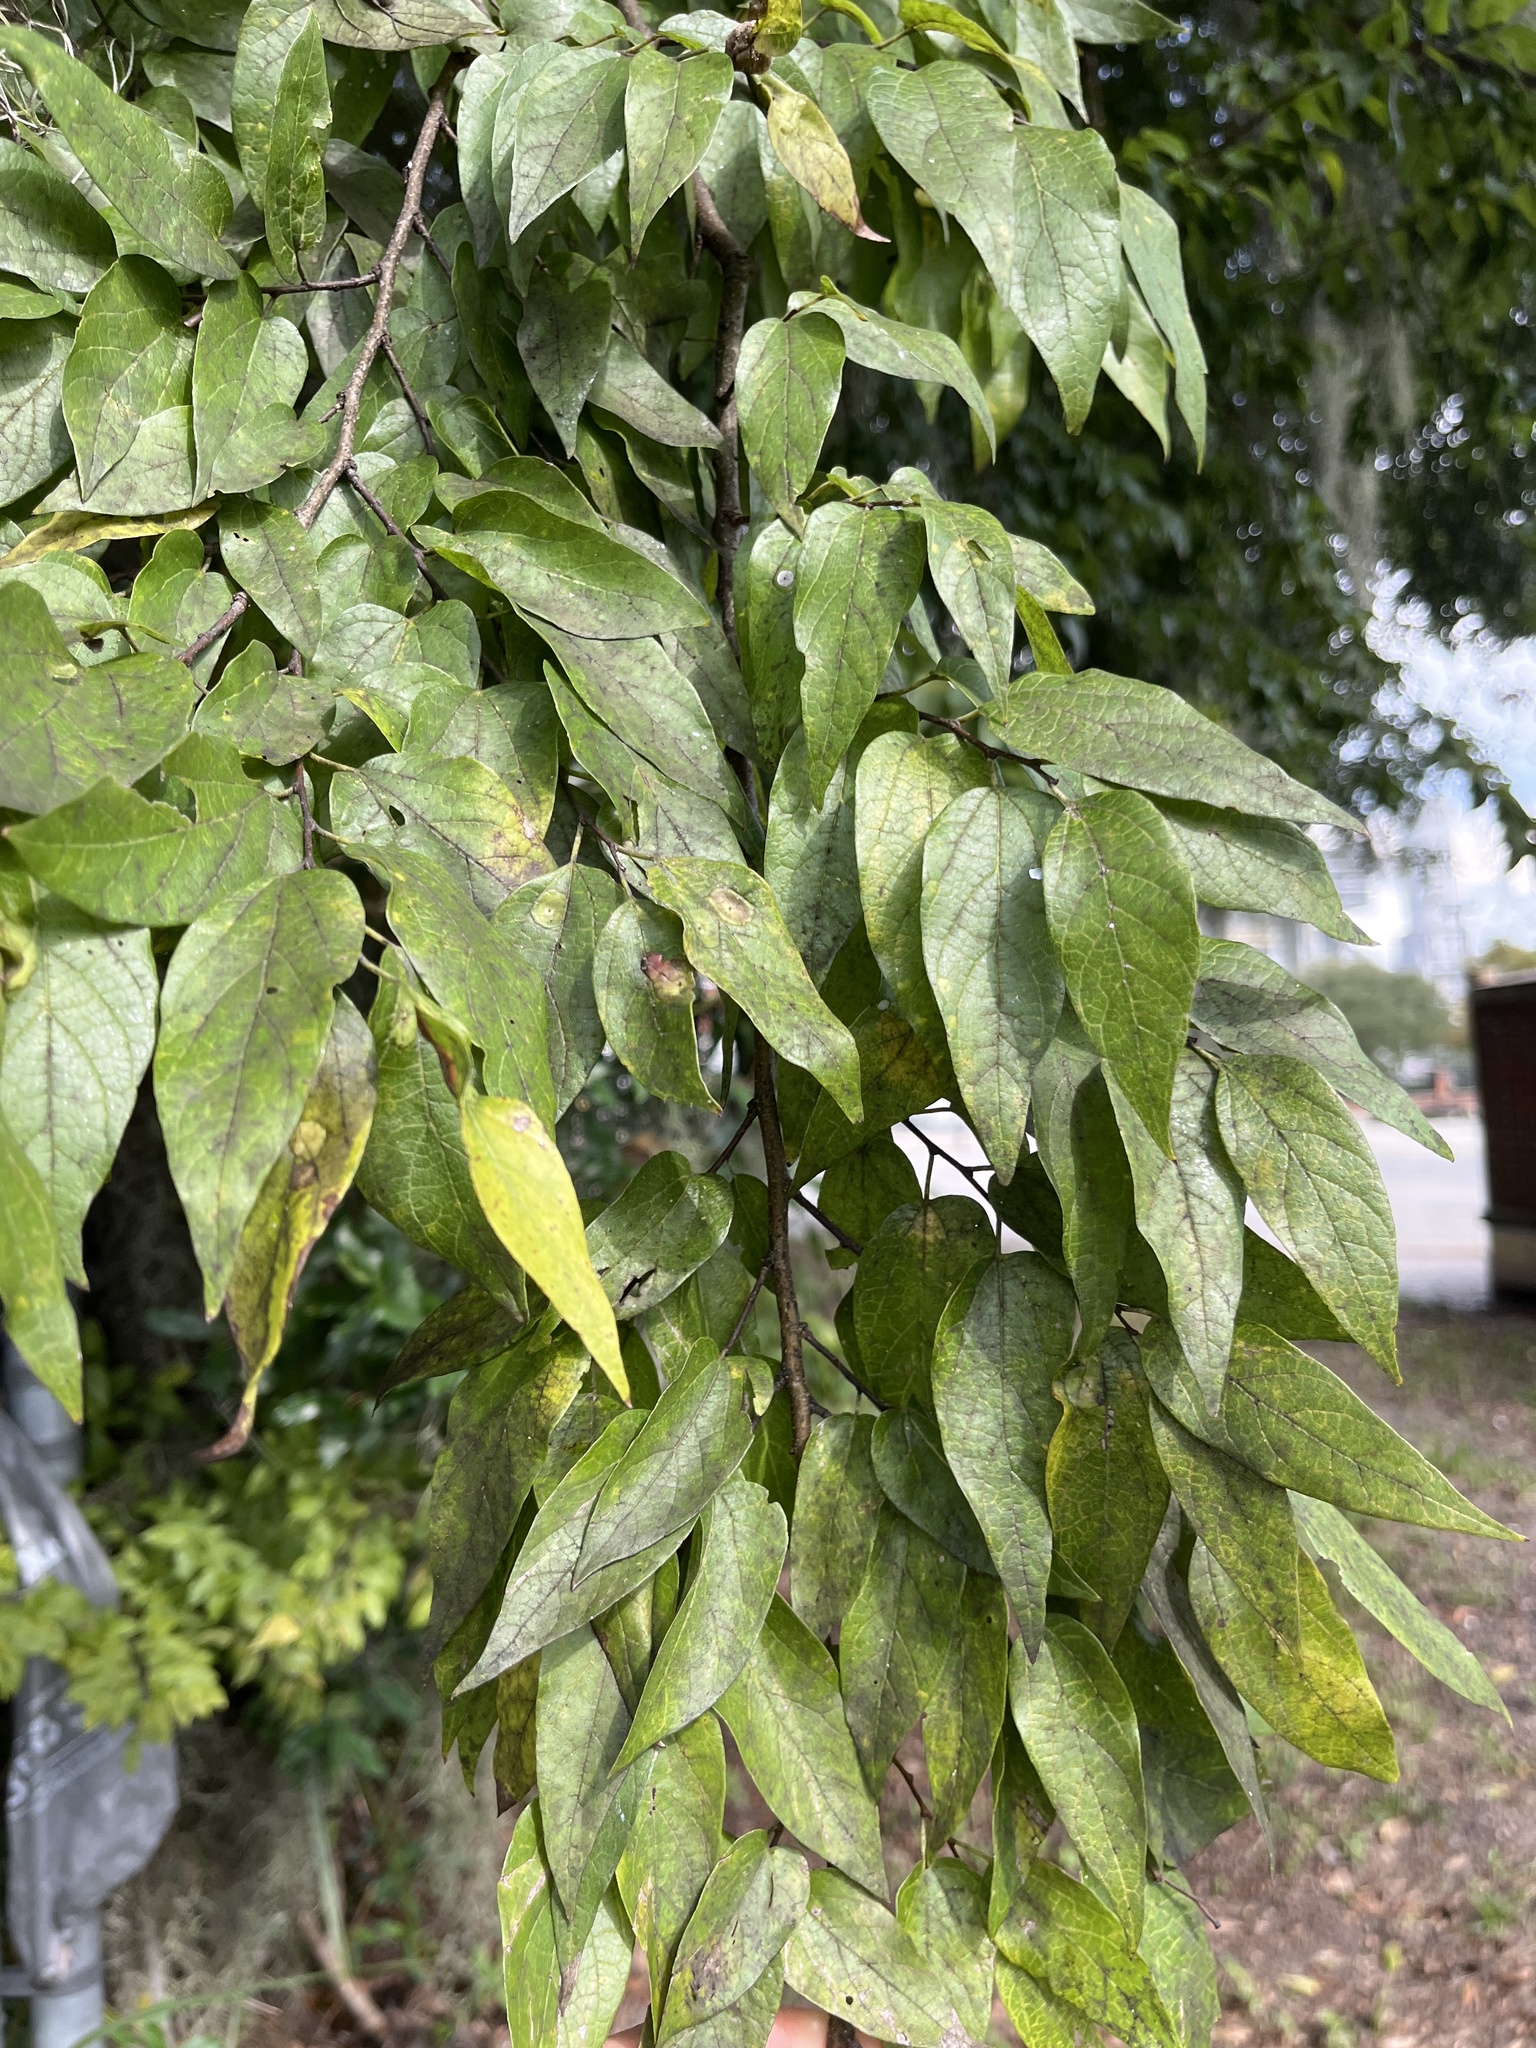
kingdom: Plantae
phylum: Tracheophyta
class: Magnoliopsida
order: Rosales
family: Cannabaceae
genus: Celtis
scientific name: Celtis laevigata
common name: Sugarberry
